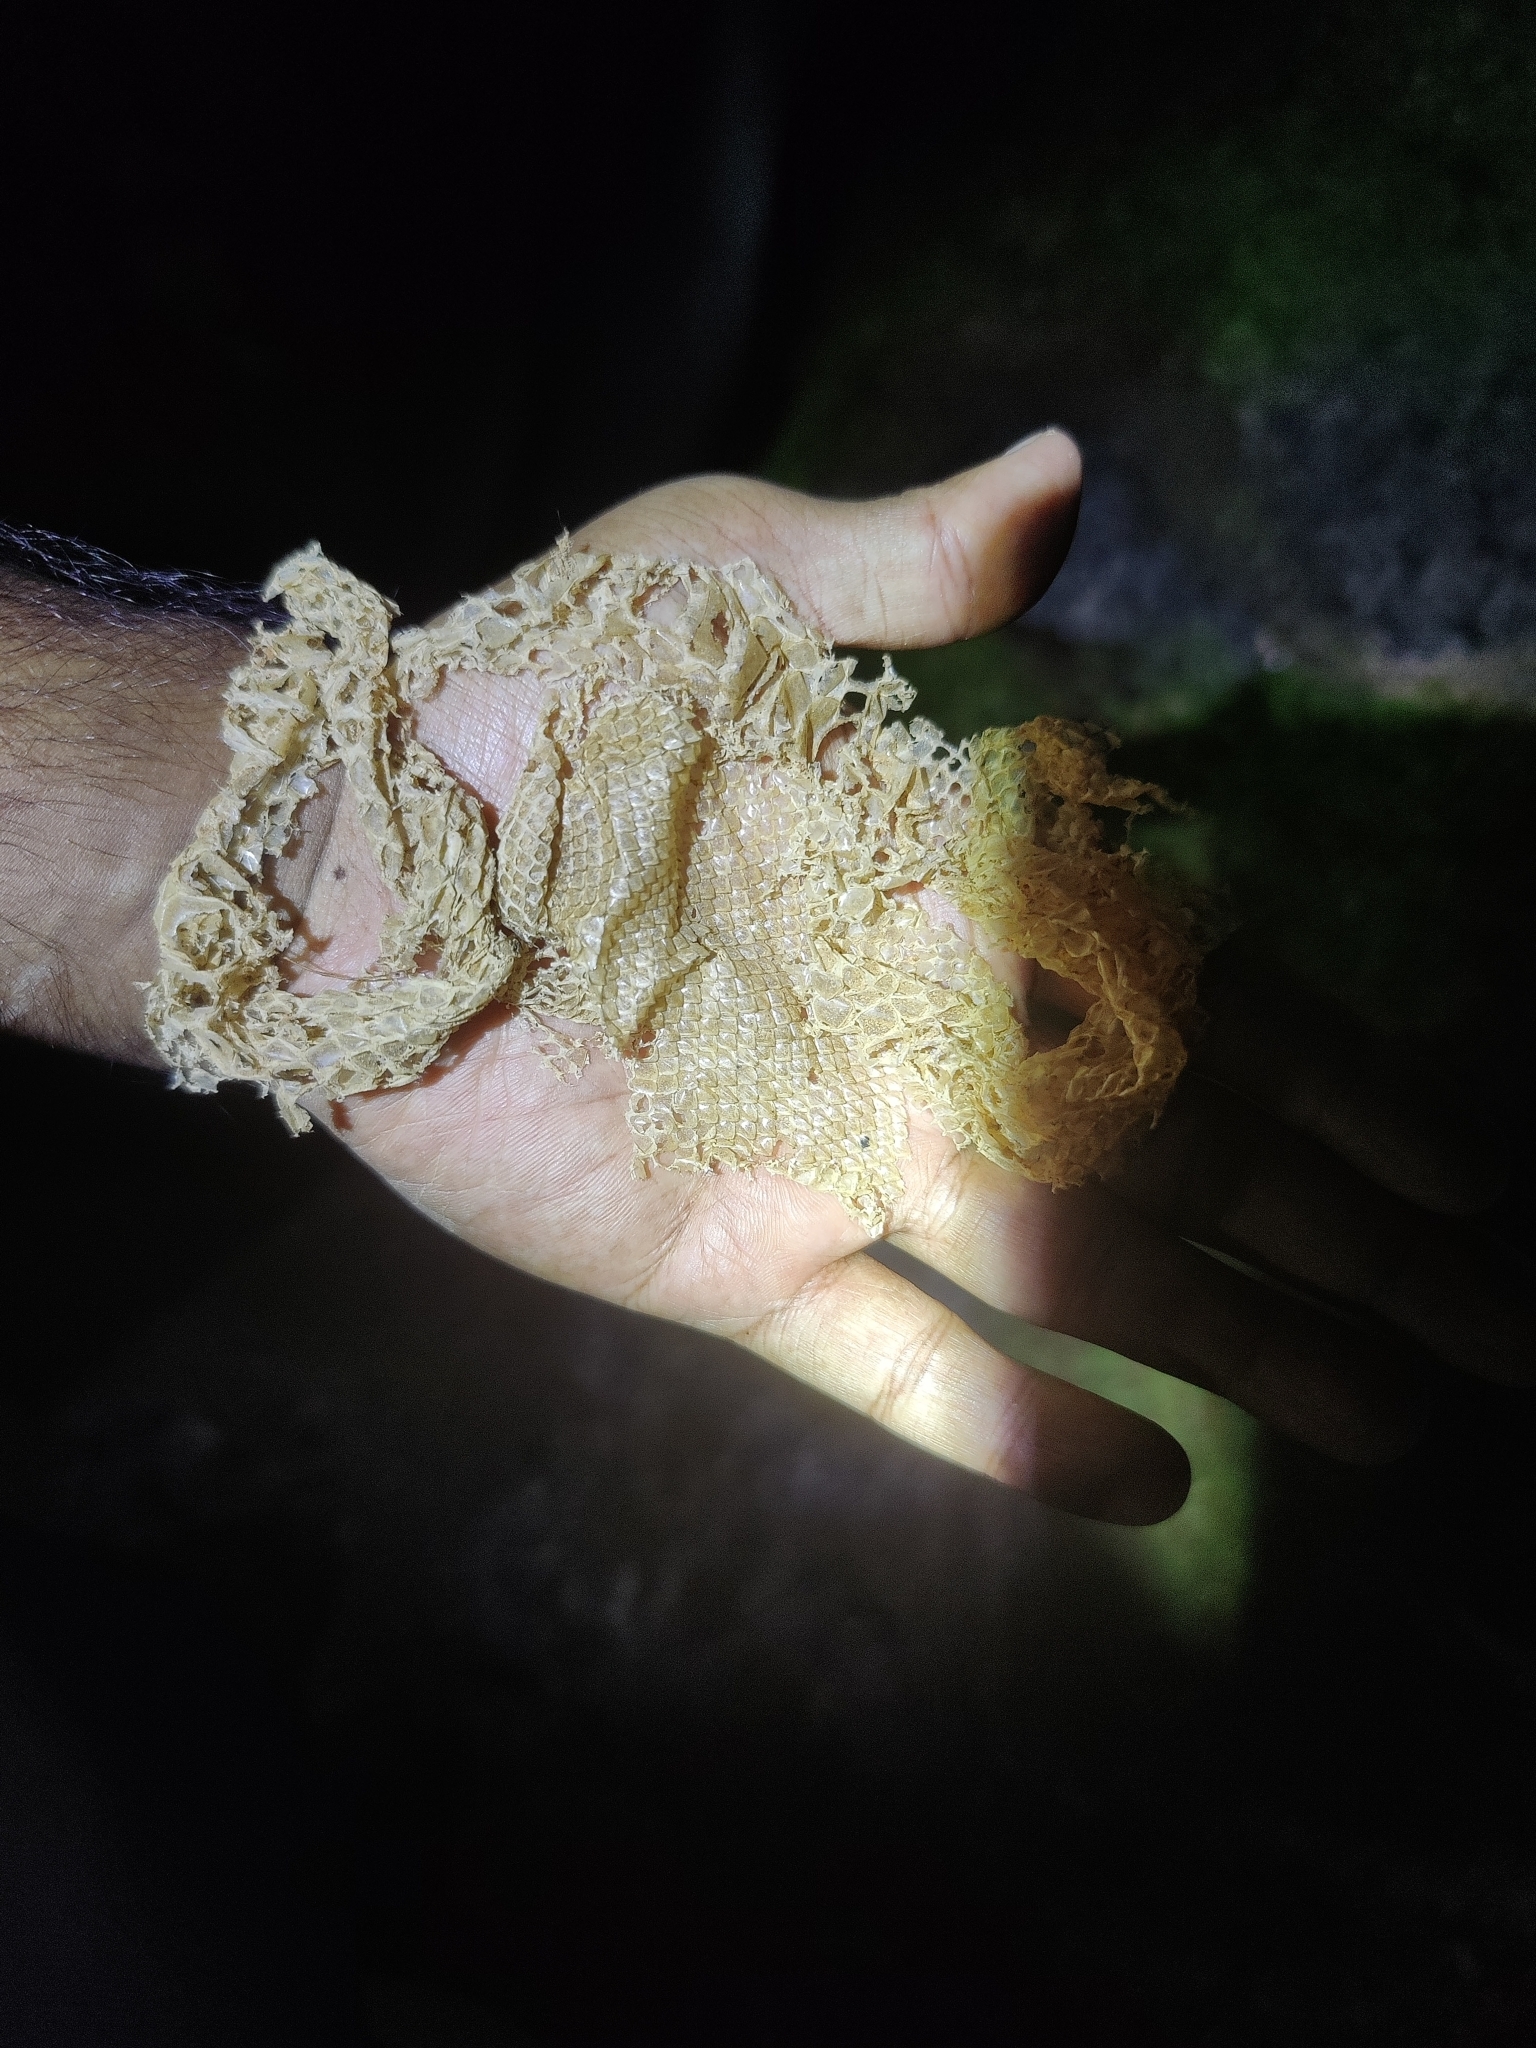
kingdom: Animalia
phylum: Chordata
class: Squamata
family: Boidae
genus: Eryx
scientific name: Eryx conicus
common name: Rough-tailed sand boa
